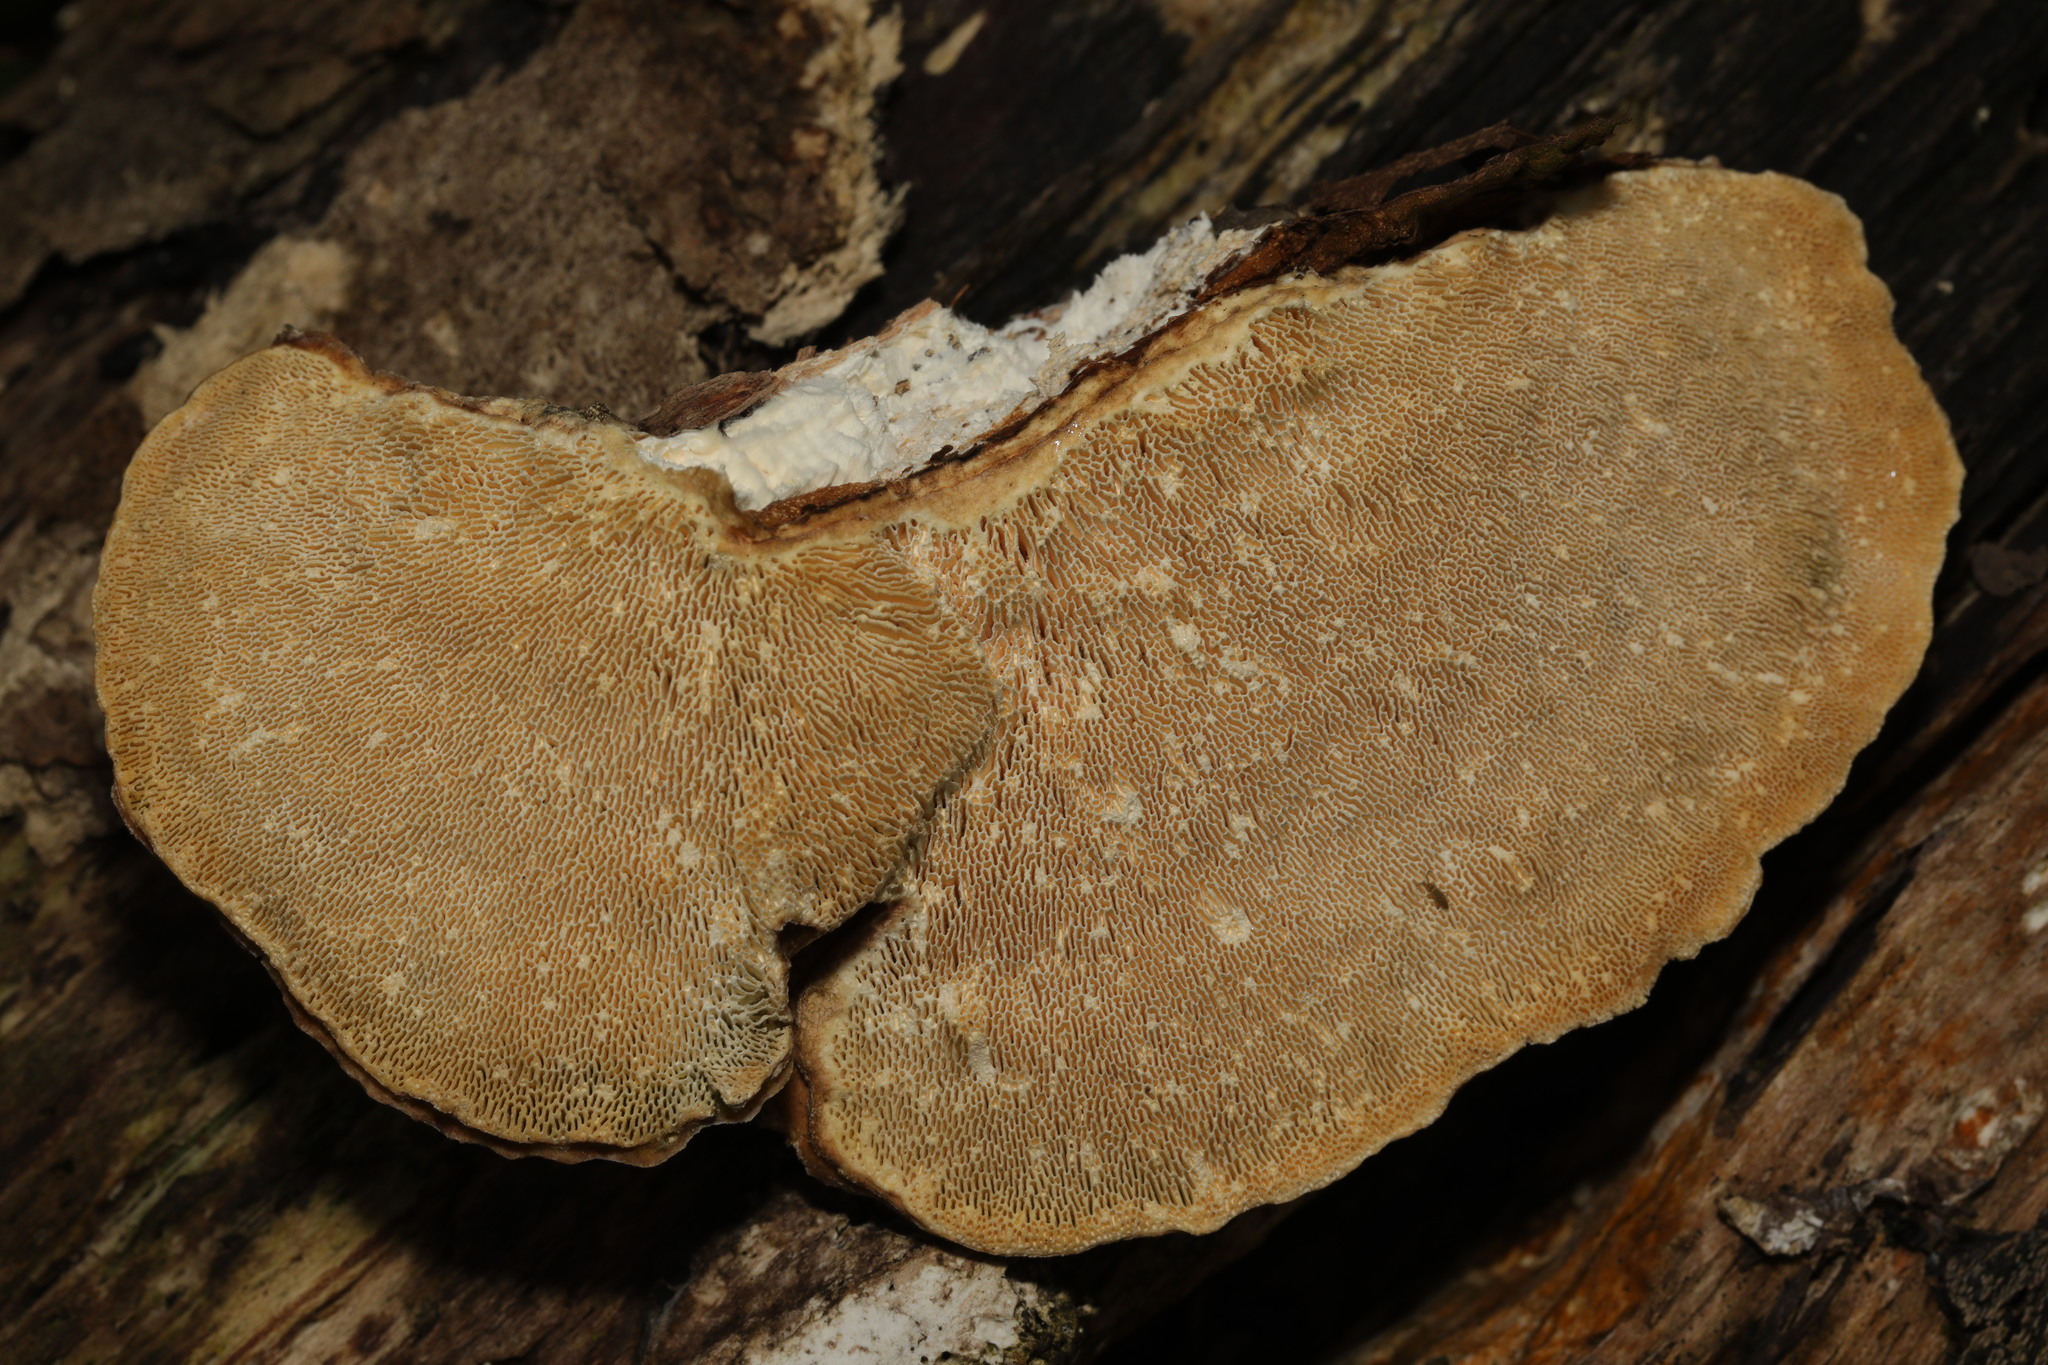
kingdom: Fungi
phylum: Basidiomycota
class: Agaricomycetes
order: Polyporales
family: Polyporaceae
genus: Daedaleopsis
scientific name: Daedaleopsis confragosa
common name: Blushing bracket
